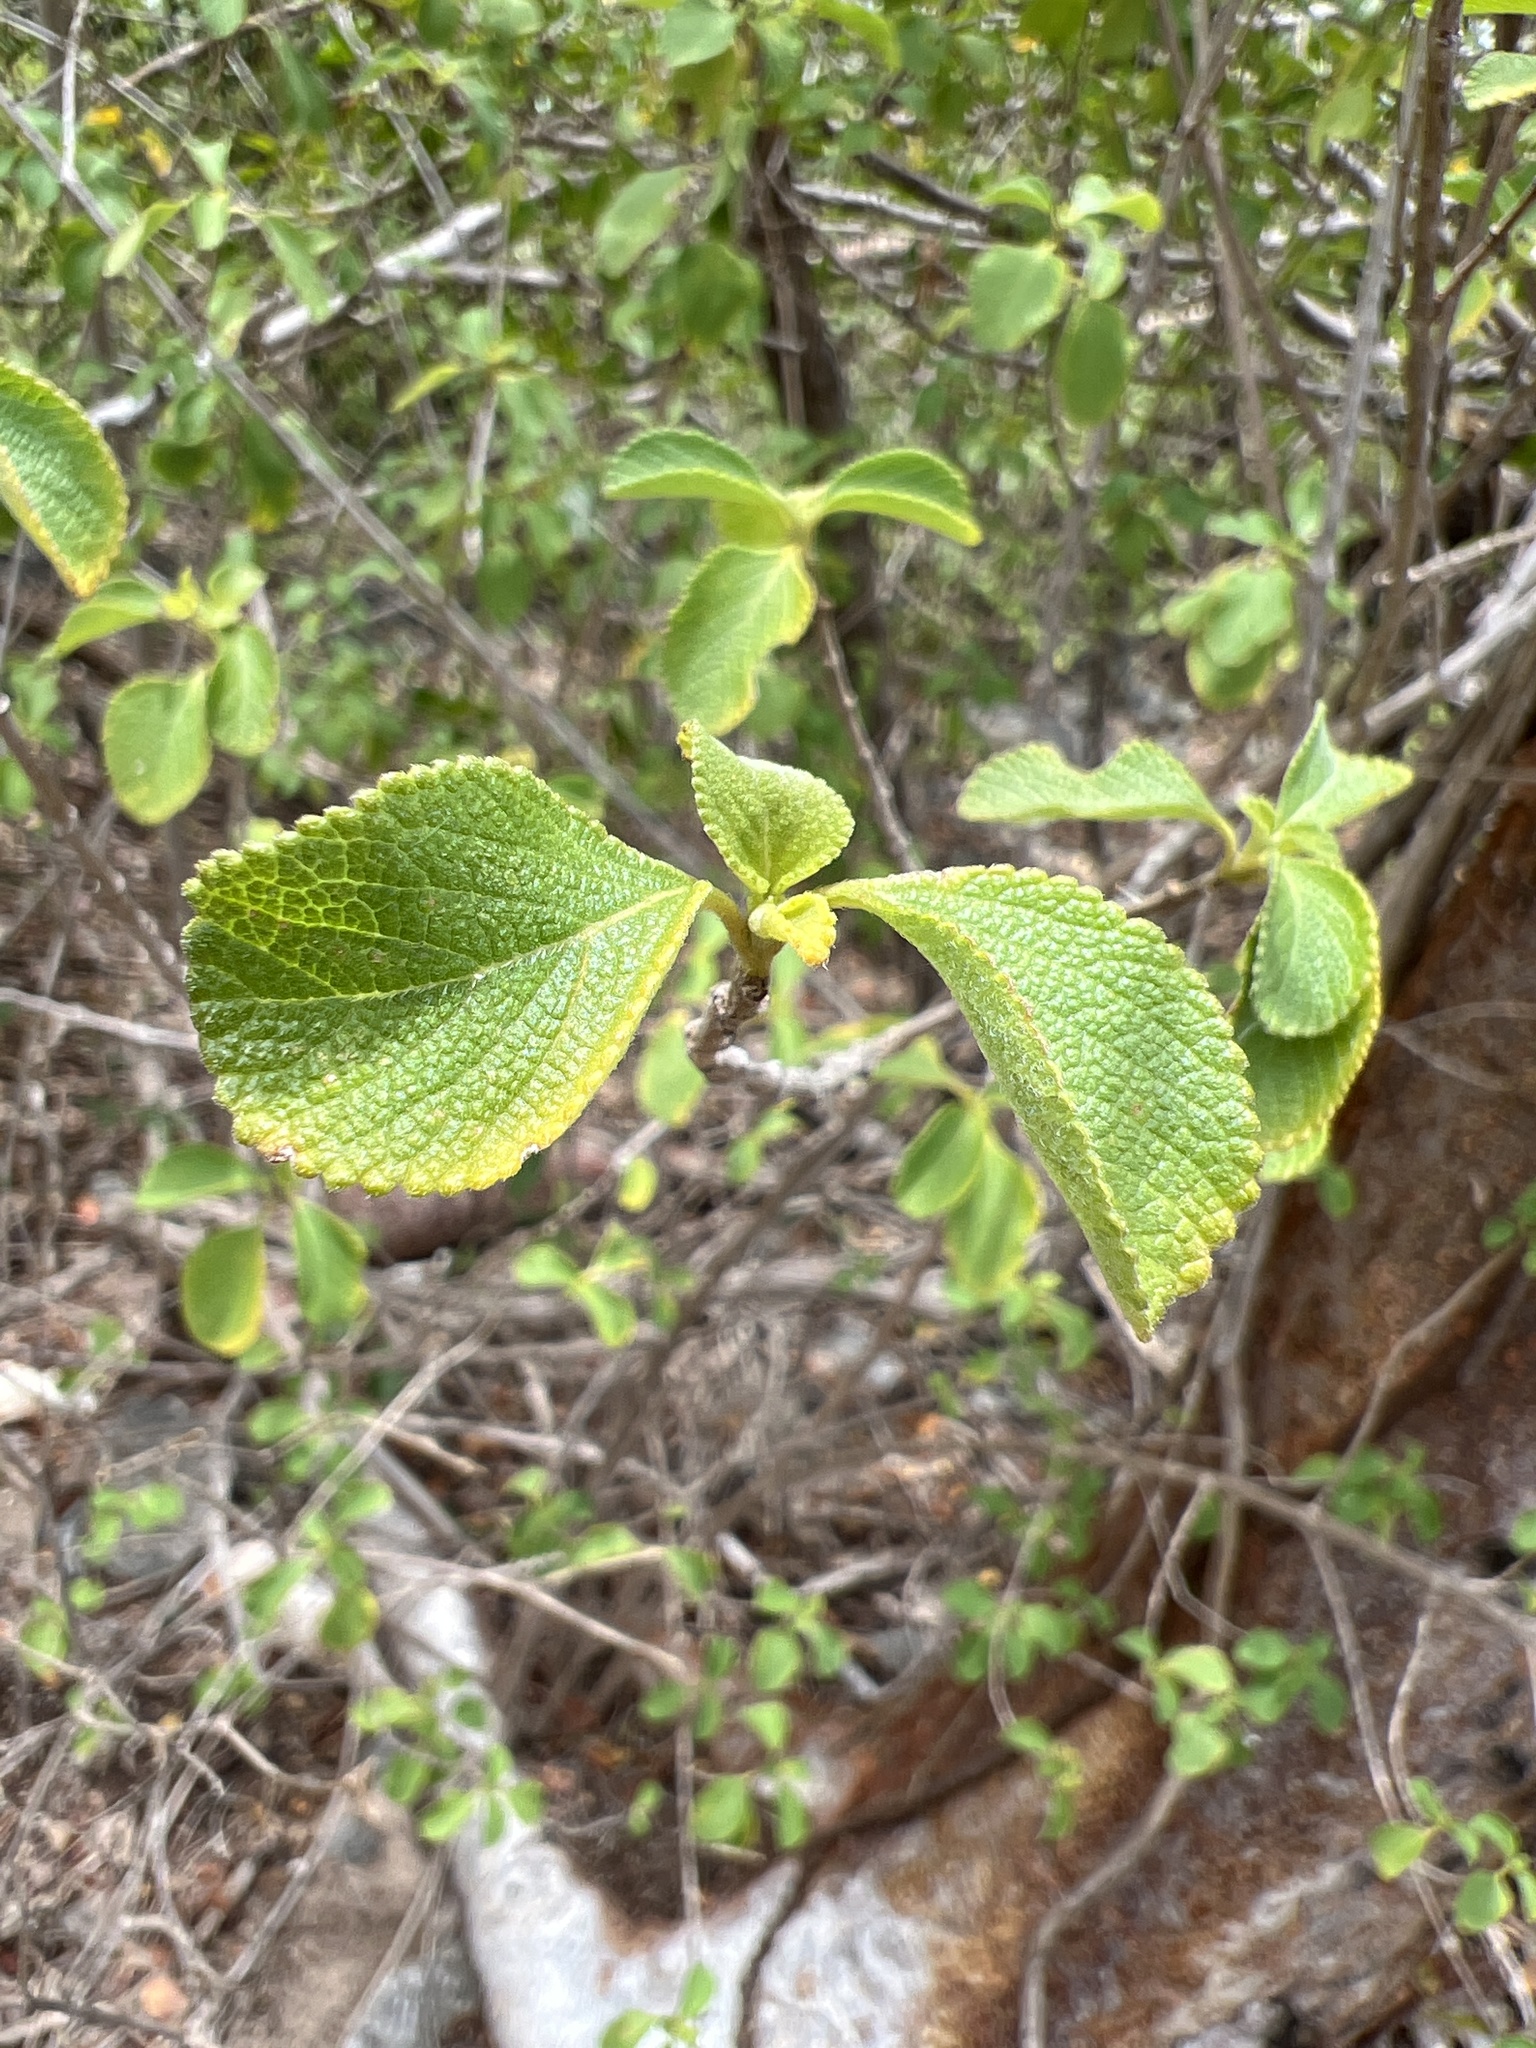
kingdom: Plantae
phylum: Tracheophyta
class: Magnoliopsida
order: Lamiales
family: Verbenaceae
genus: Lantana
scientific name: Lantana involucrata
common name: Black sage
